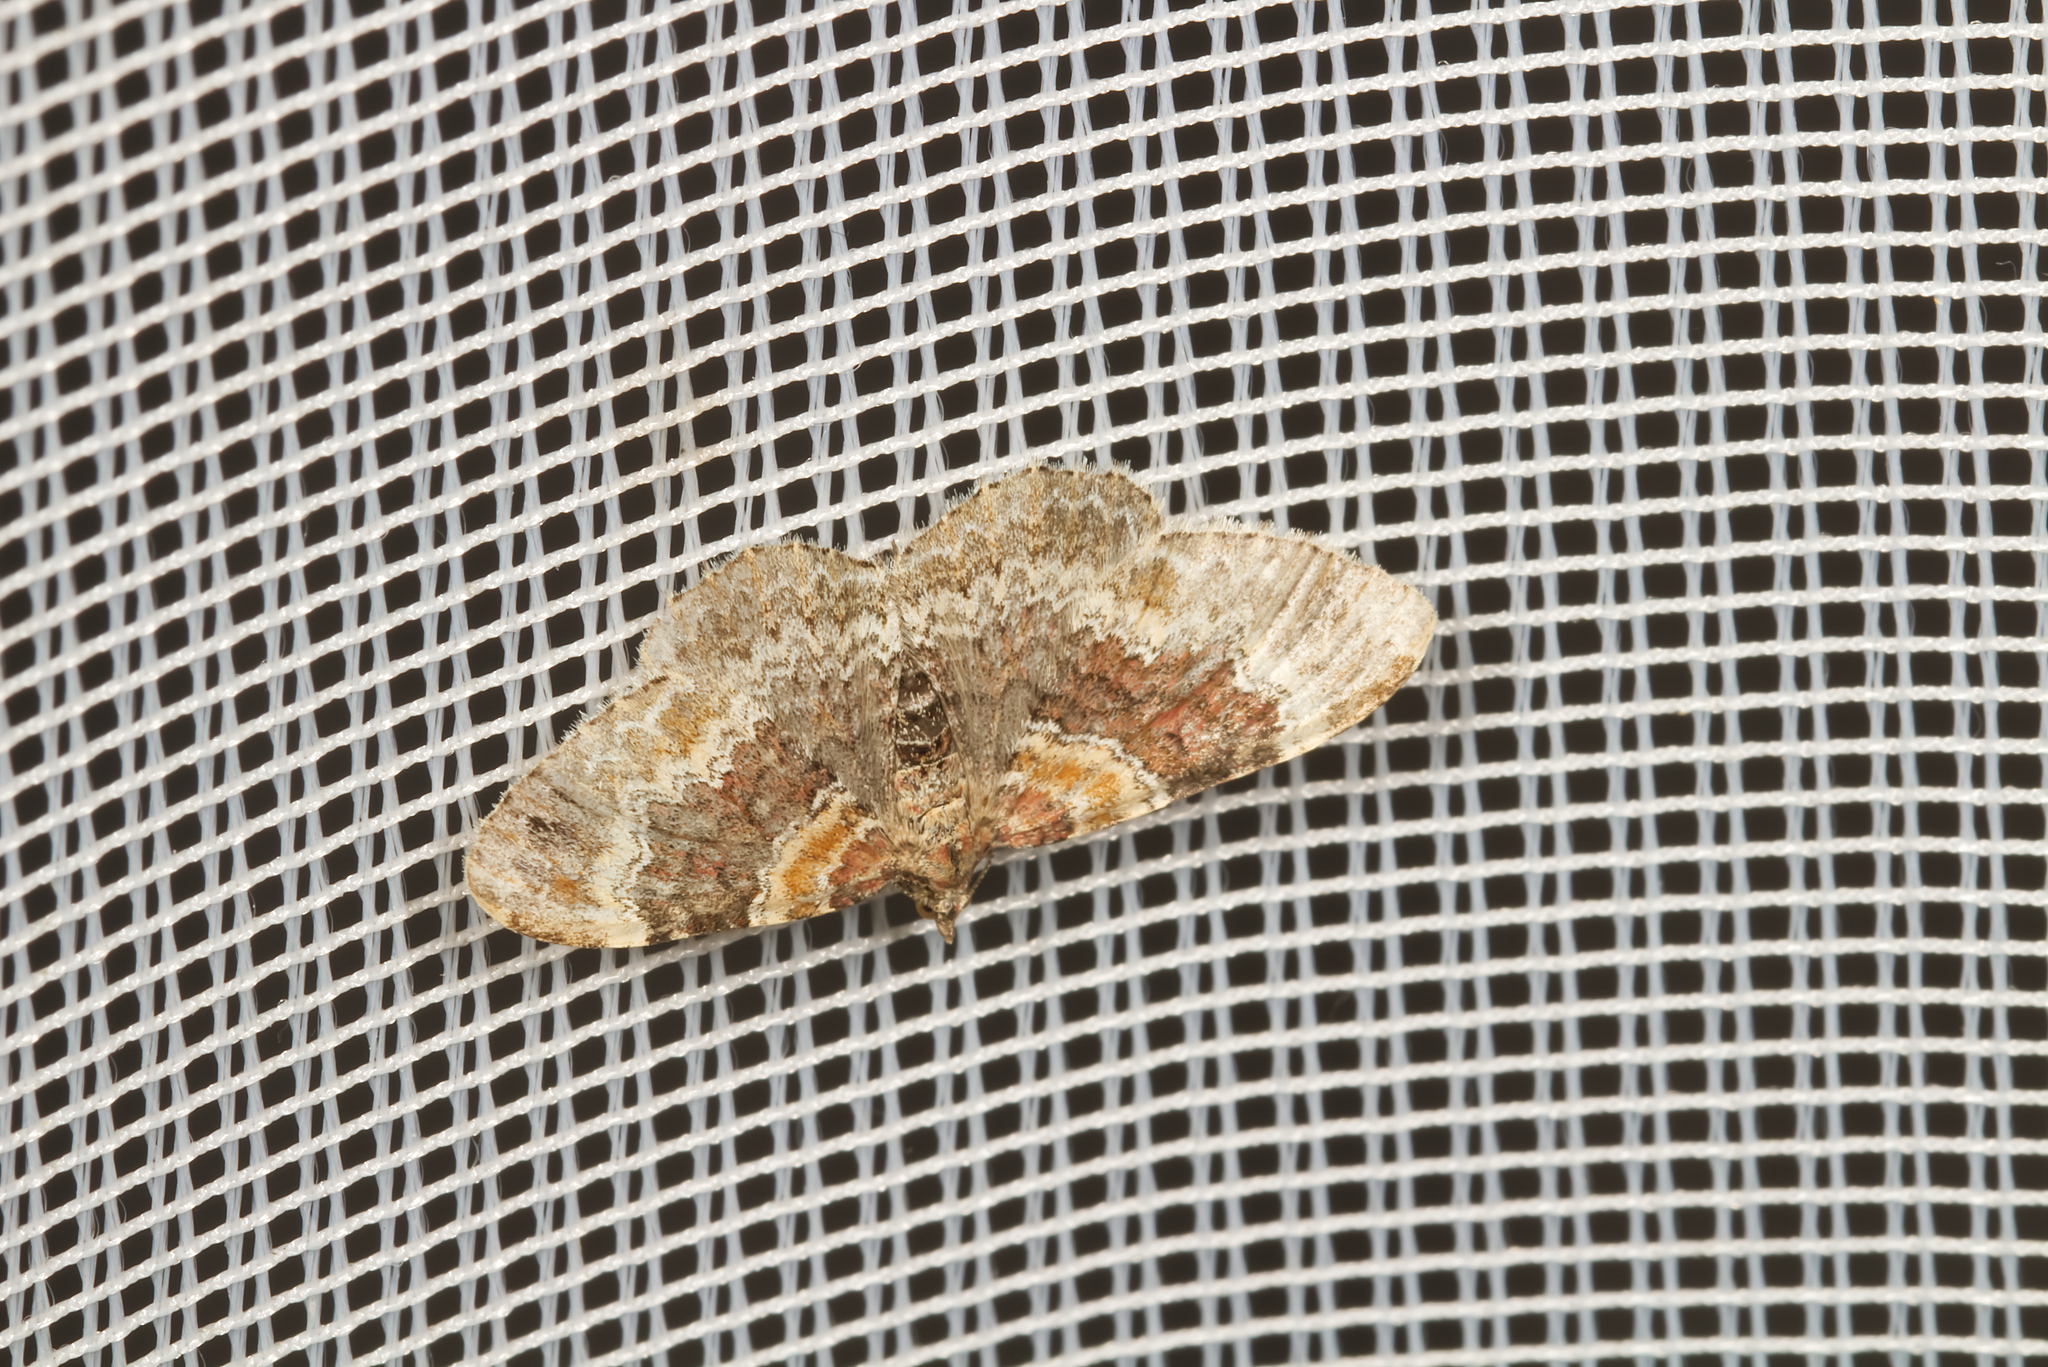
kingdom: Animalia
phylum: Arthropoda
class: Insecta
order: Lepidoptera
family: Geometridae
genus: Xanthorhoe
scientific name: Xanthorhoe spadicearia
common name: Red twin-spot carpet
